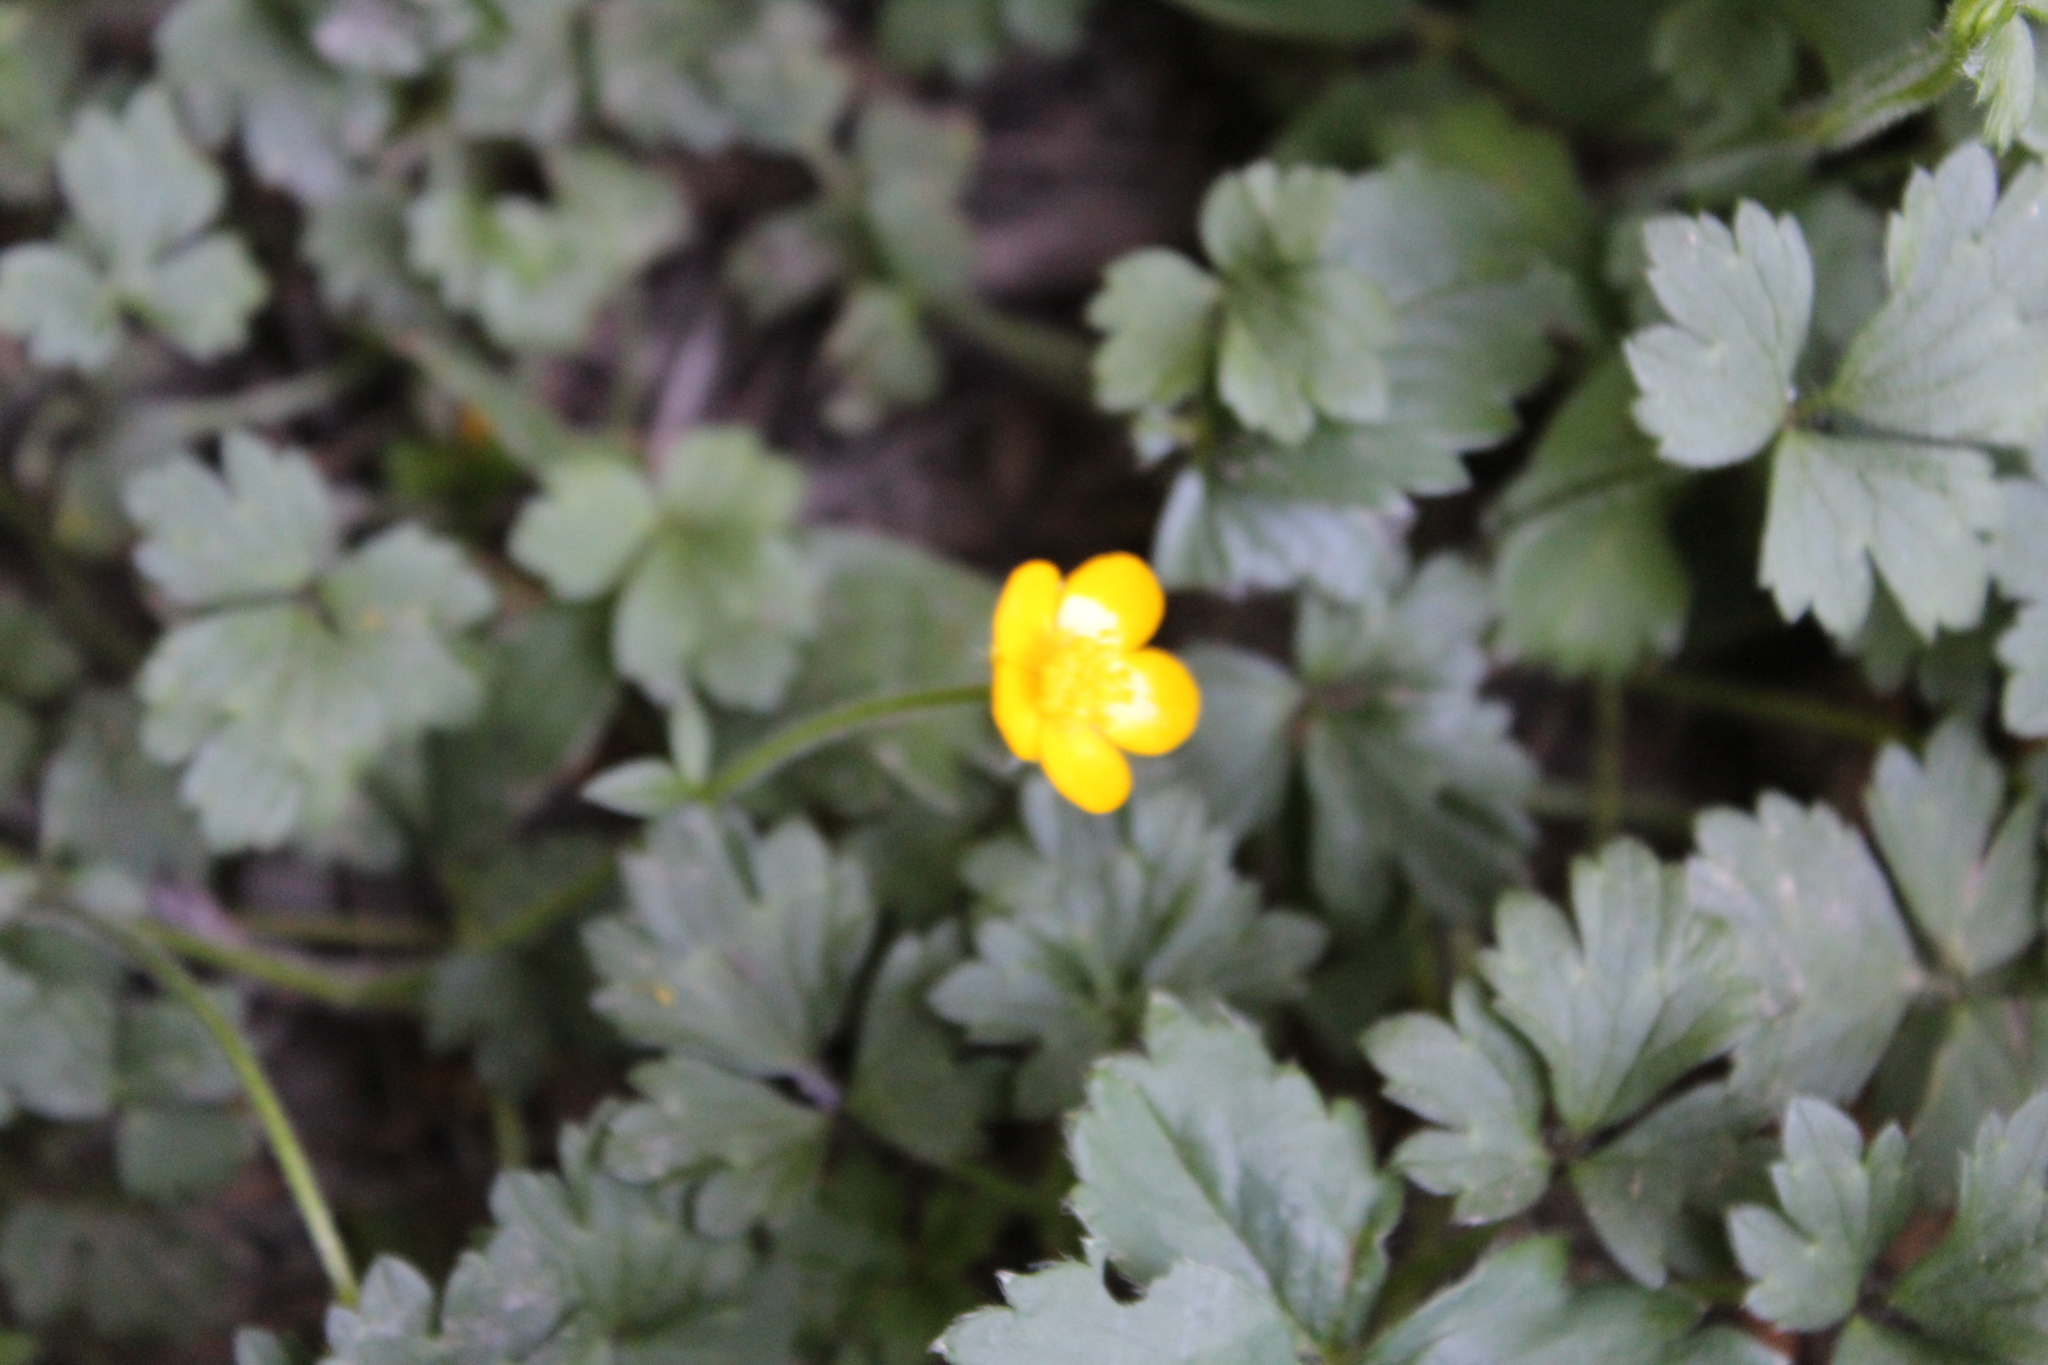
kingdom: Plantae
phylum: Tracheophyta
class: Magnoliopsida
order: Ranunculales
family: Ranunculaceae
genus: Ranunculus
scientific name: Ranunculus repens
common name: Creeping buttercup
